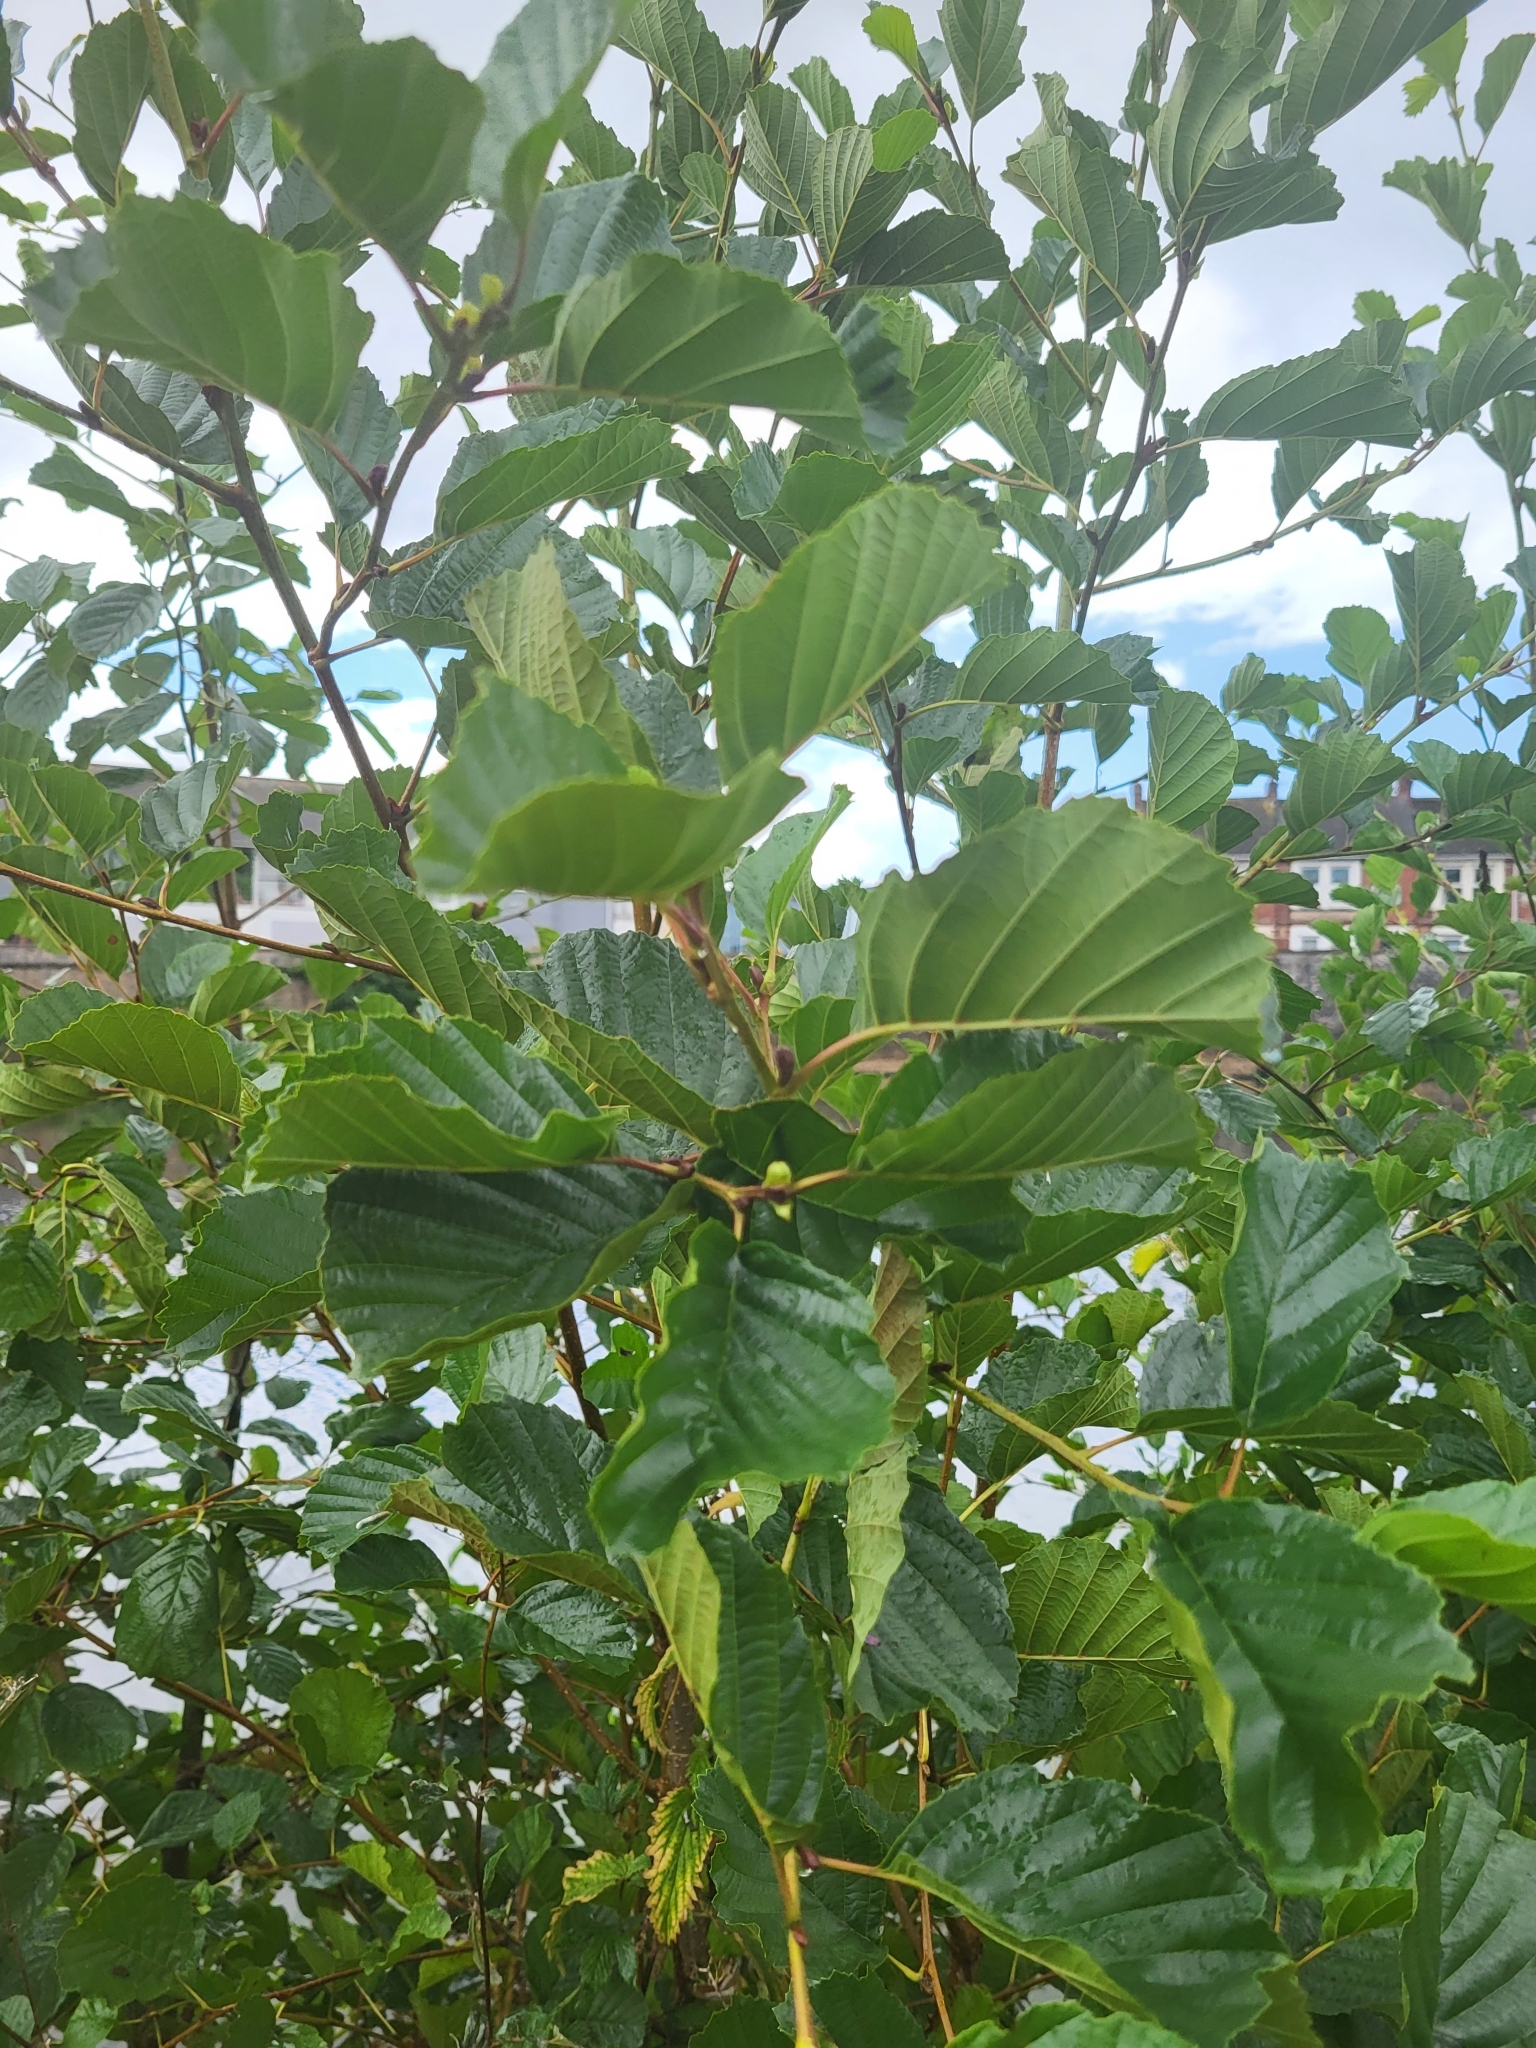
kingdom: Plantae
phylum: Tracheophyta
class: Magnoliopsida
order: Fagales
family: Betulaceae
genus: Alnus
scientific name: Alnus glutinosa
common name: Black alder
